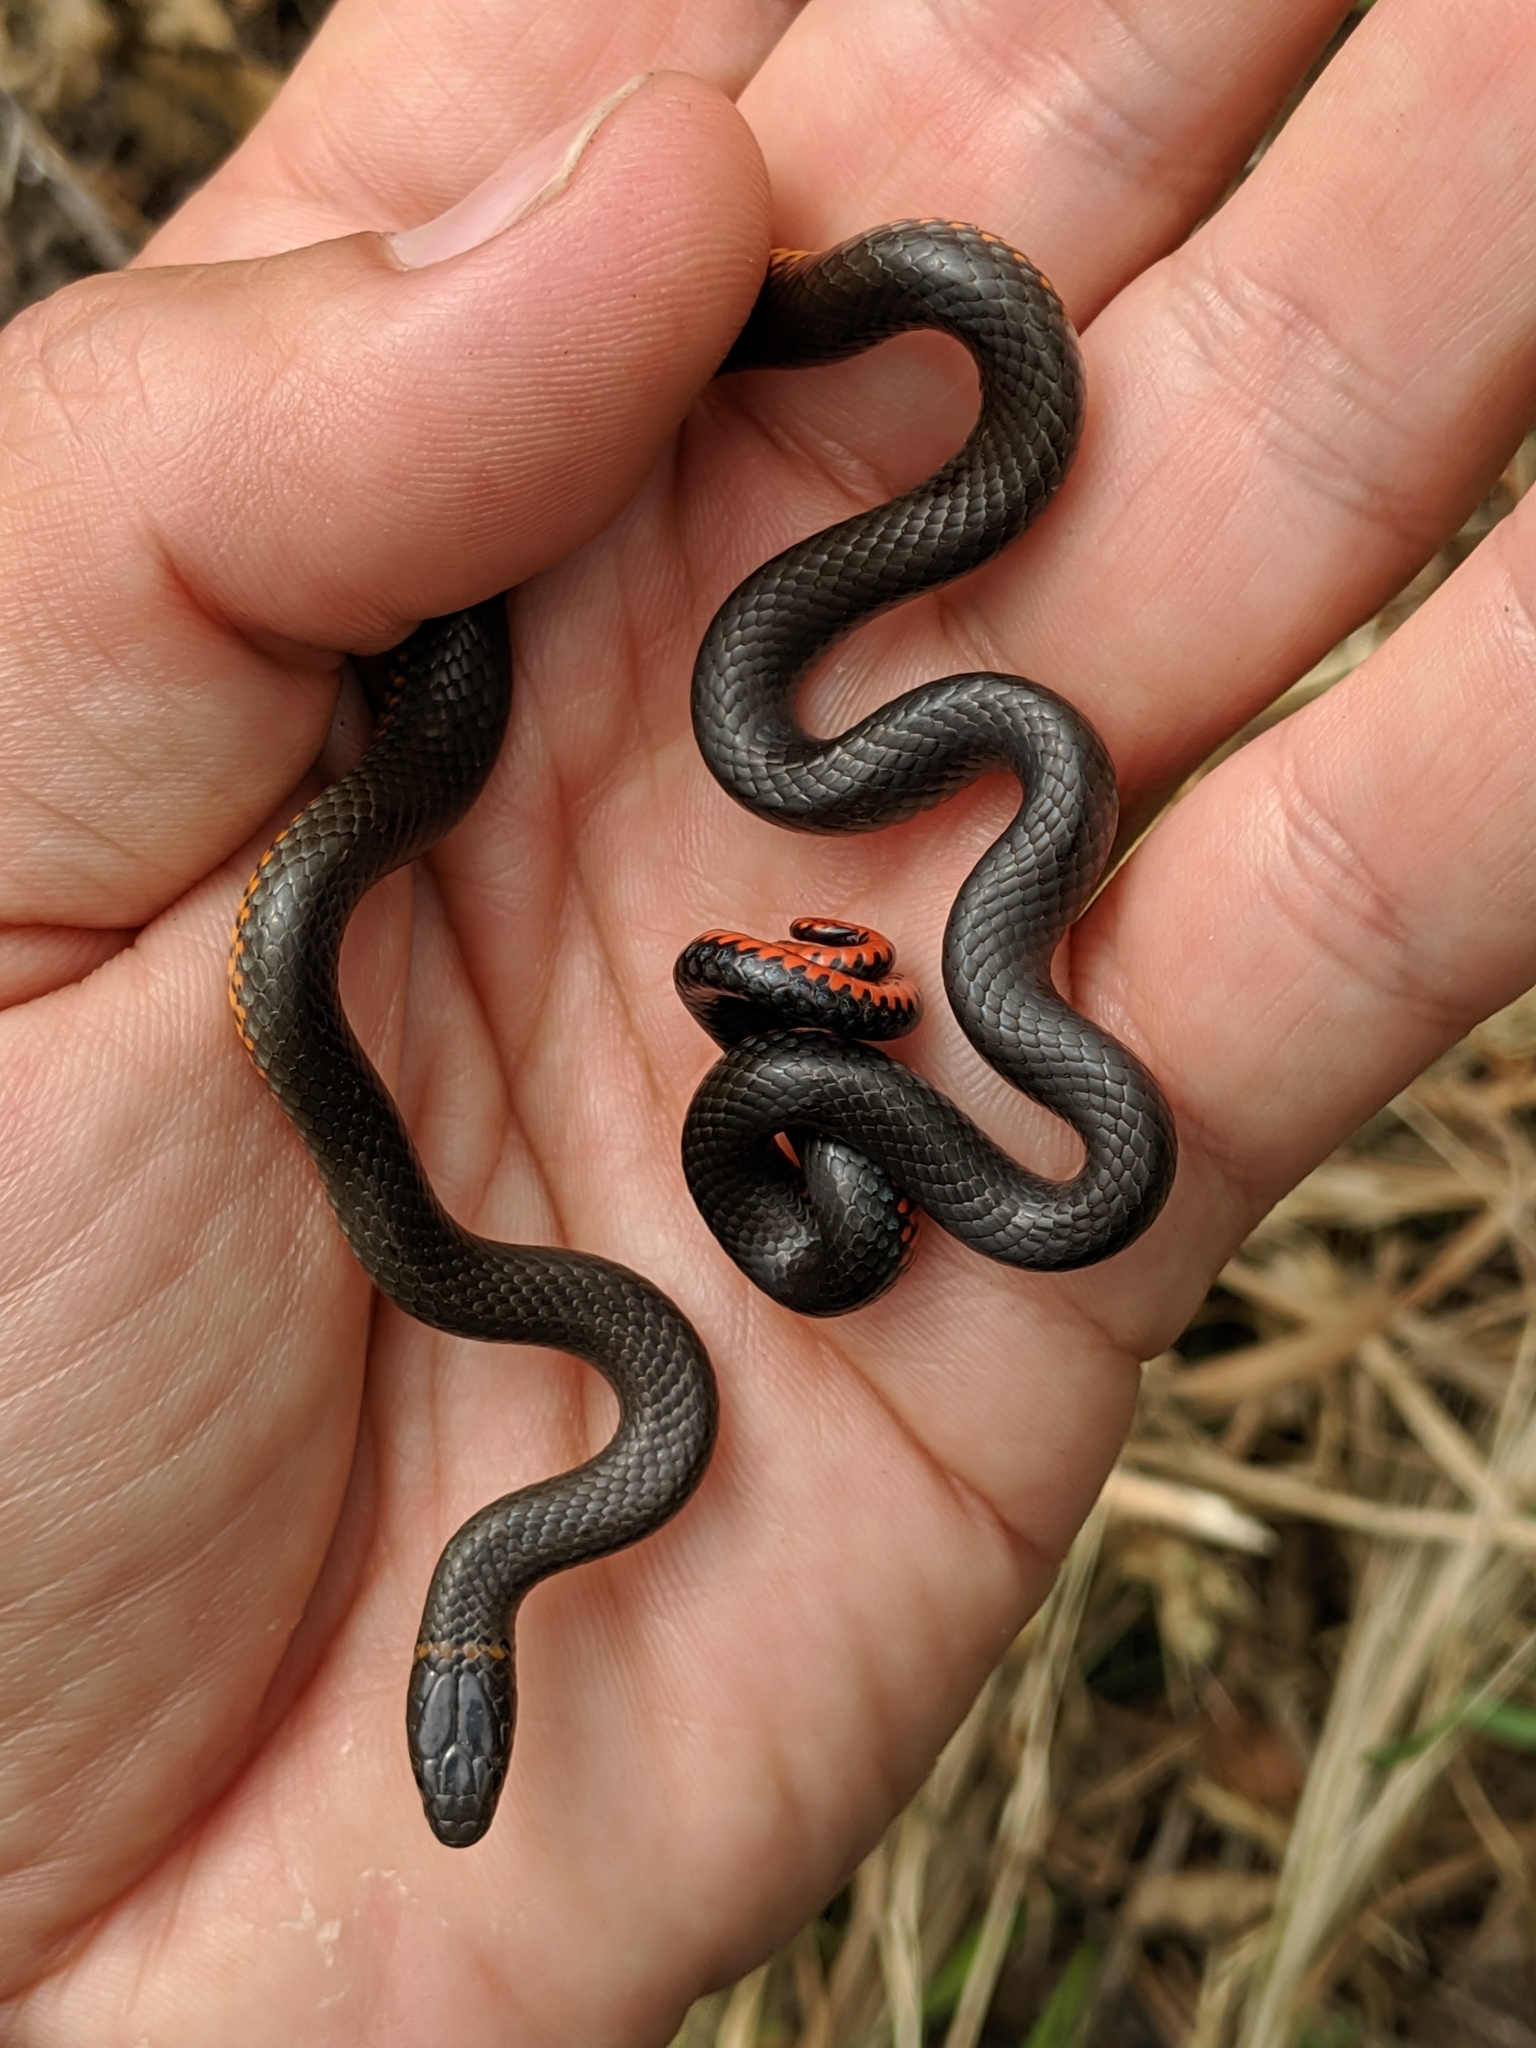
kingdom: Animalia
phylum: Chordata
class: Squamata
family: Colubridae
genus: Diadophis
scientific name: Diadophis punctatus
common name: Ringneck snake
